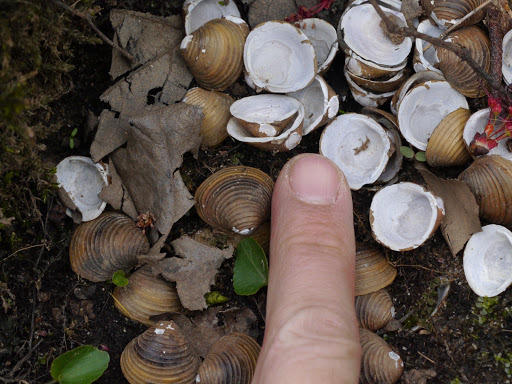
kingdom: Animalia
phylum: Mollusca
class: Bivalvia
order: Venerida
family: Cyrenidae
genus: Corbicula
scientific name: Corbicula fluminea
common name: Asian clam
